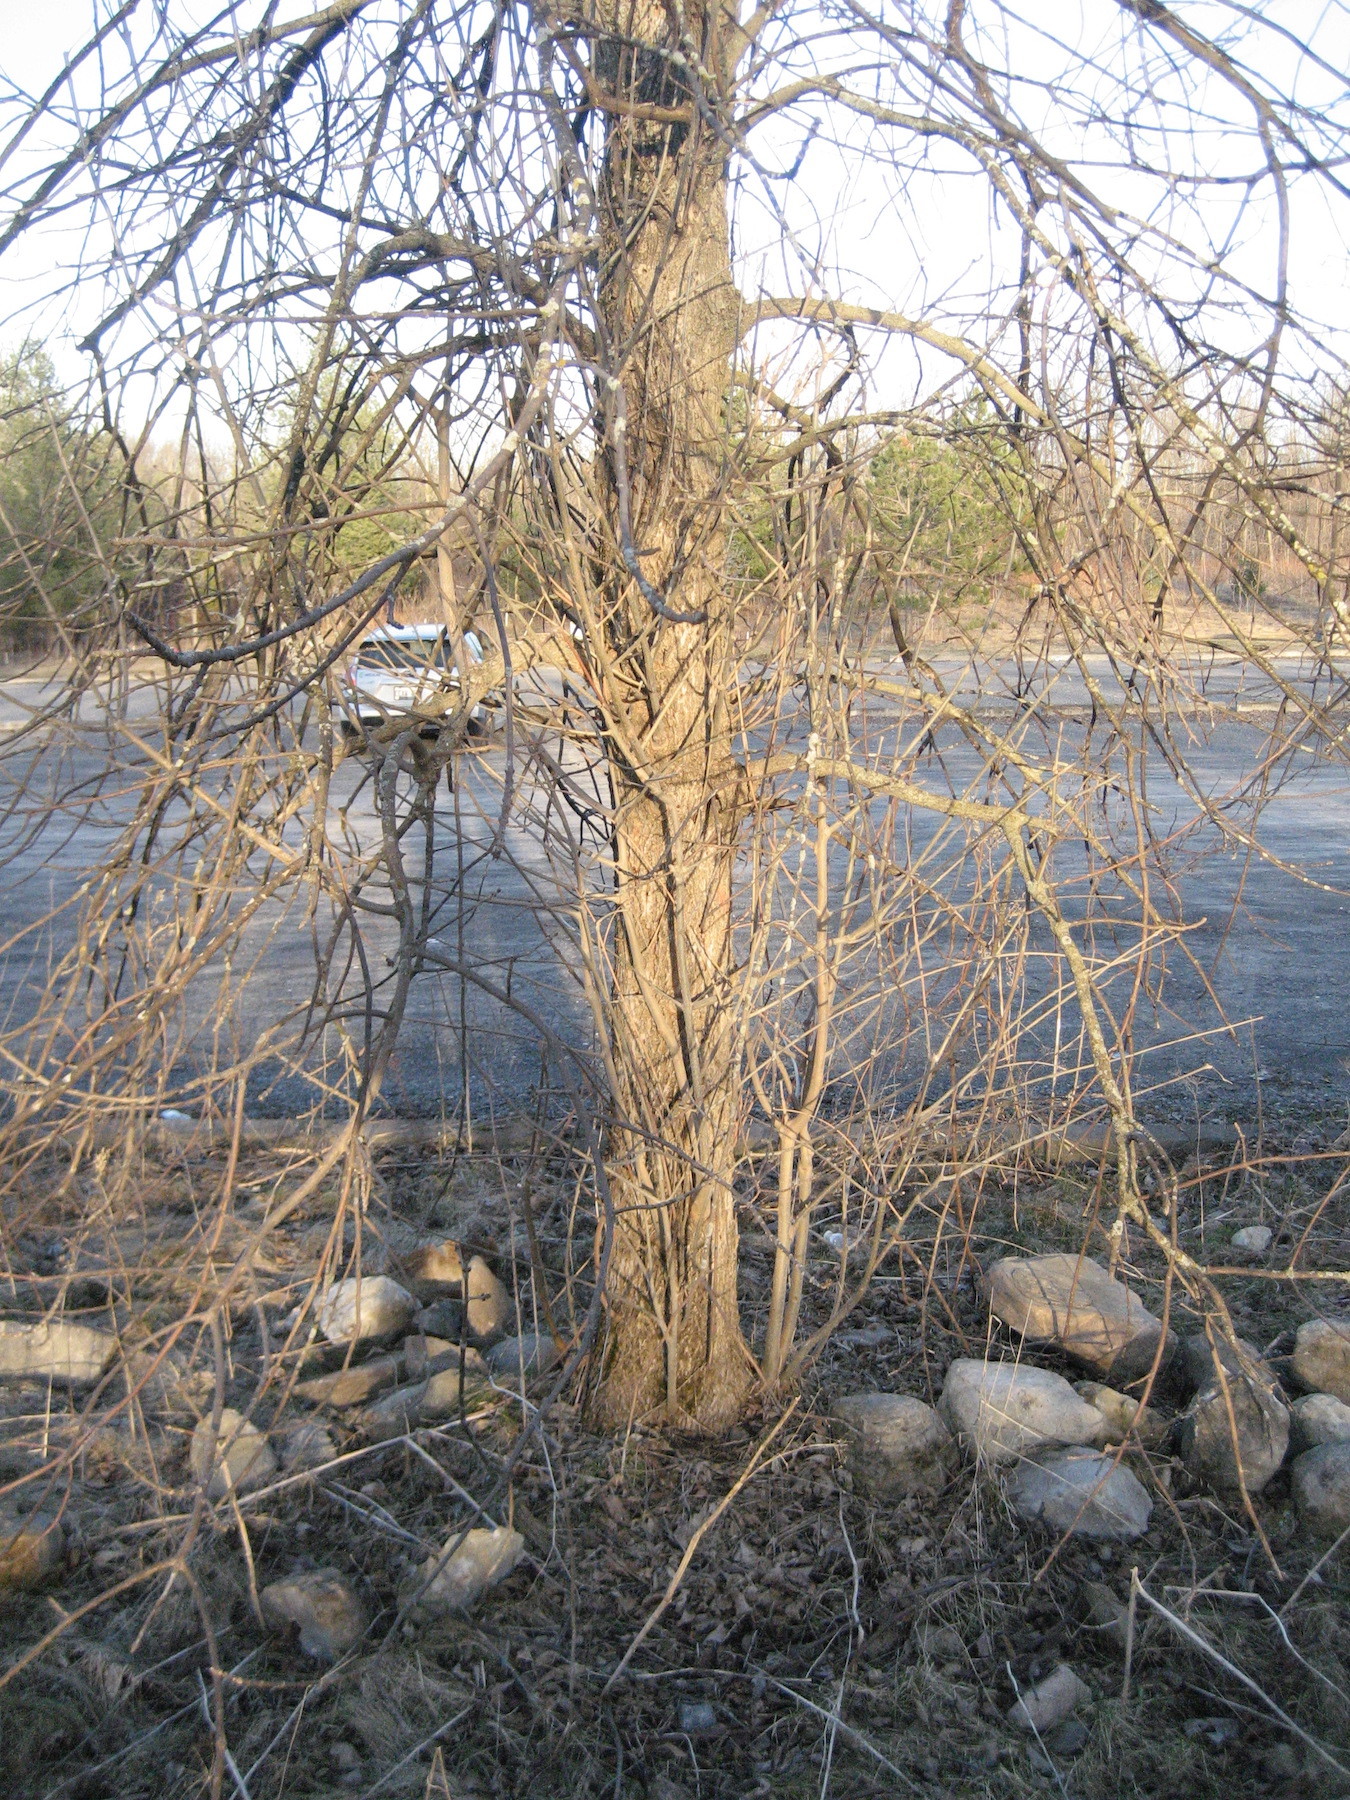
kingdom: Animalia
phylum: Arthropoda
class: Insecta
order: Coleoptera
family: Buprestidae
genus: Agrilus
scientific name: Agrilus planipennis
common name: Emerald ash borer
